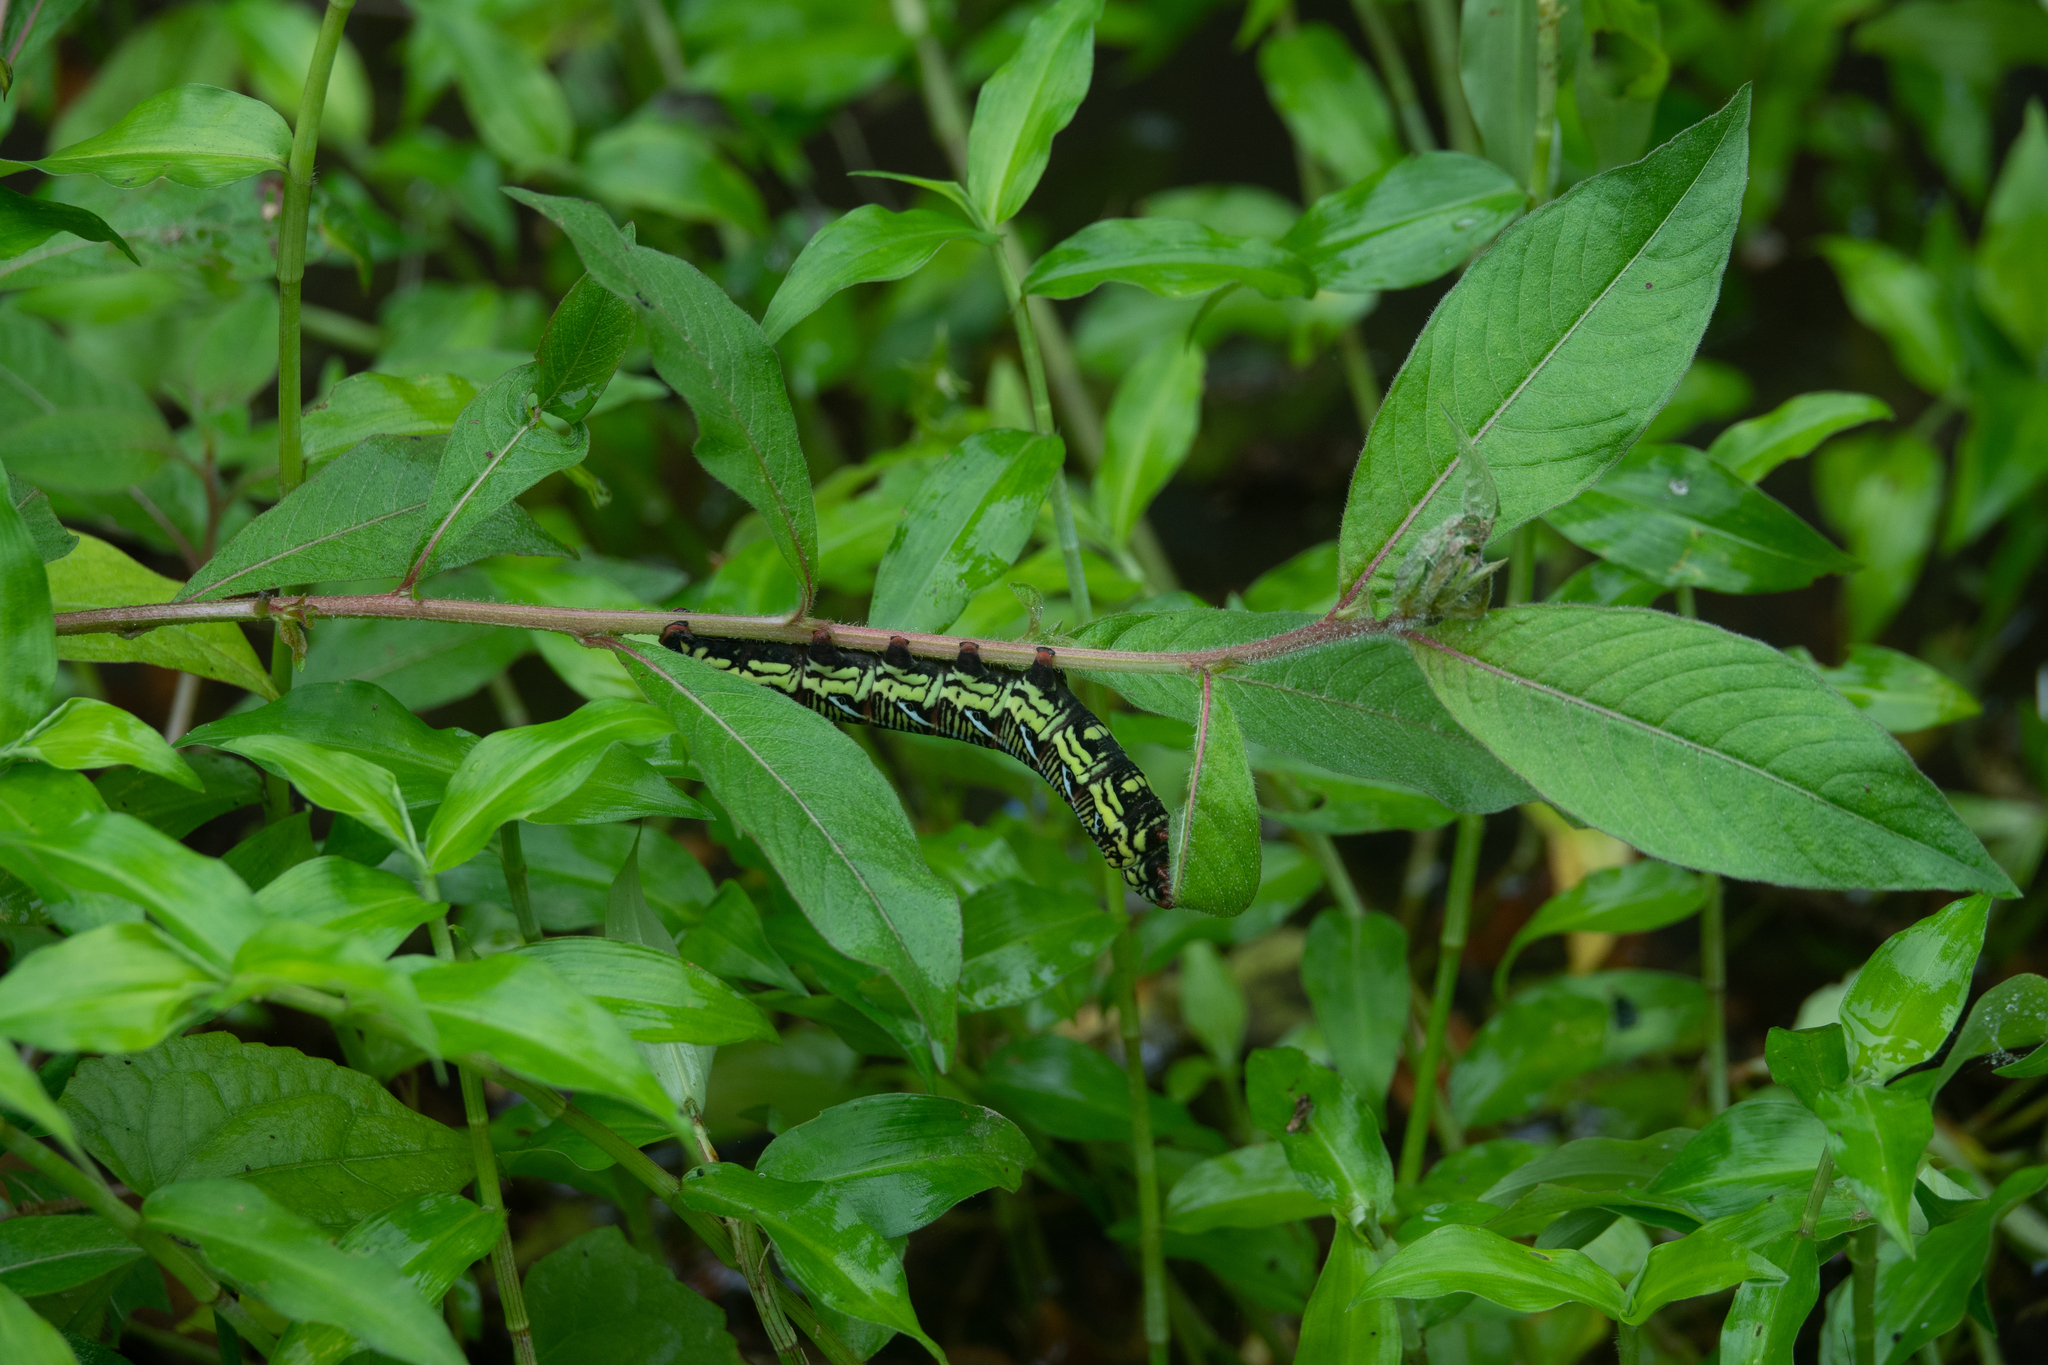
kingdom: Animalia
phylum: Arthropoda
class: Insecta
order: Lepidoptera
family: Sphingidae
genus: Eumorpha
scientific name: Eumorpha fasciatus
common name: Banded sphinx
